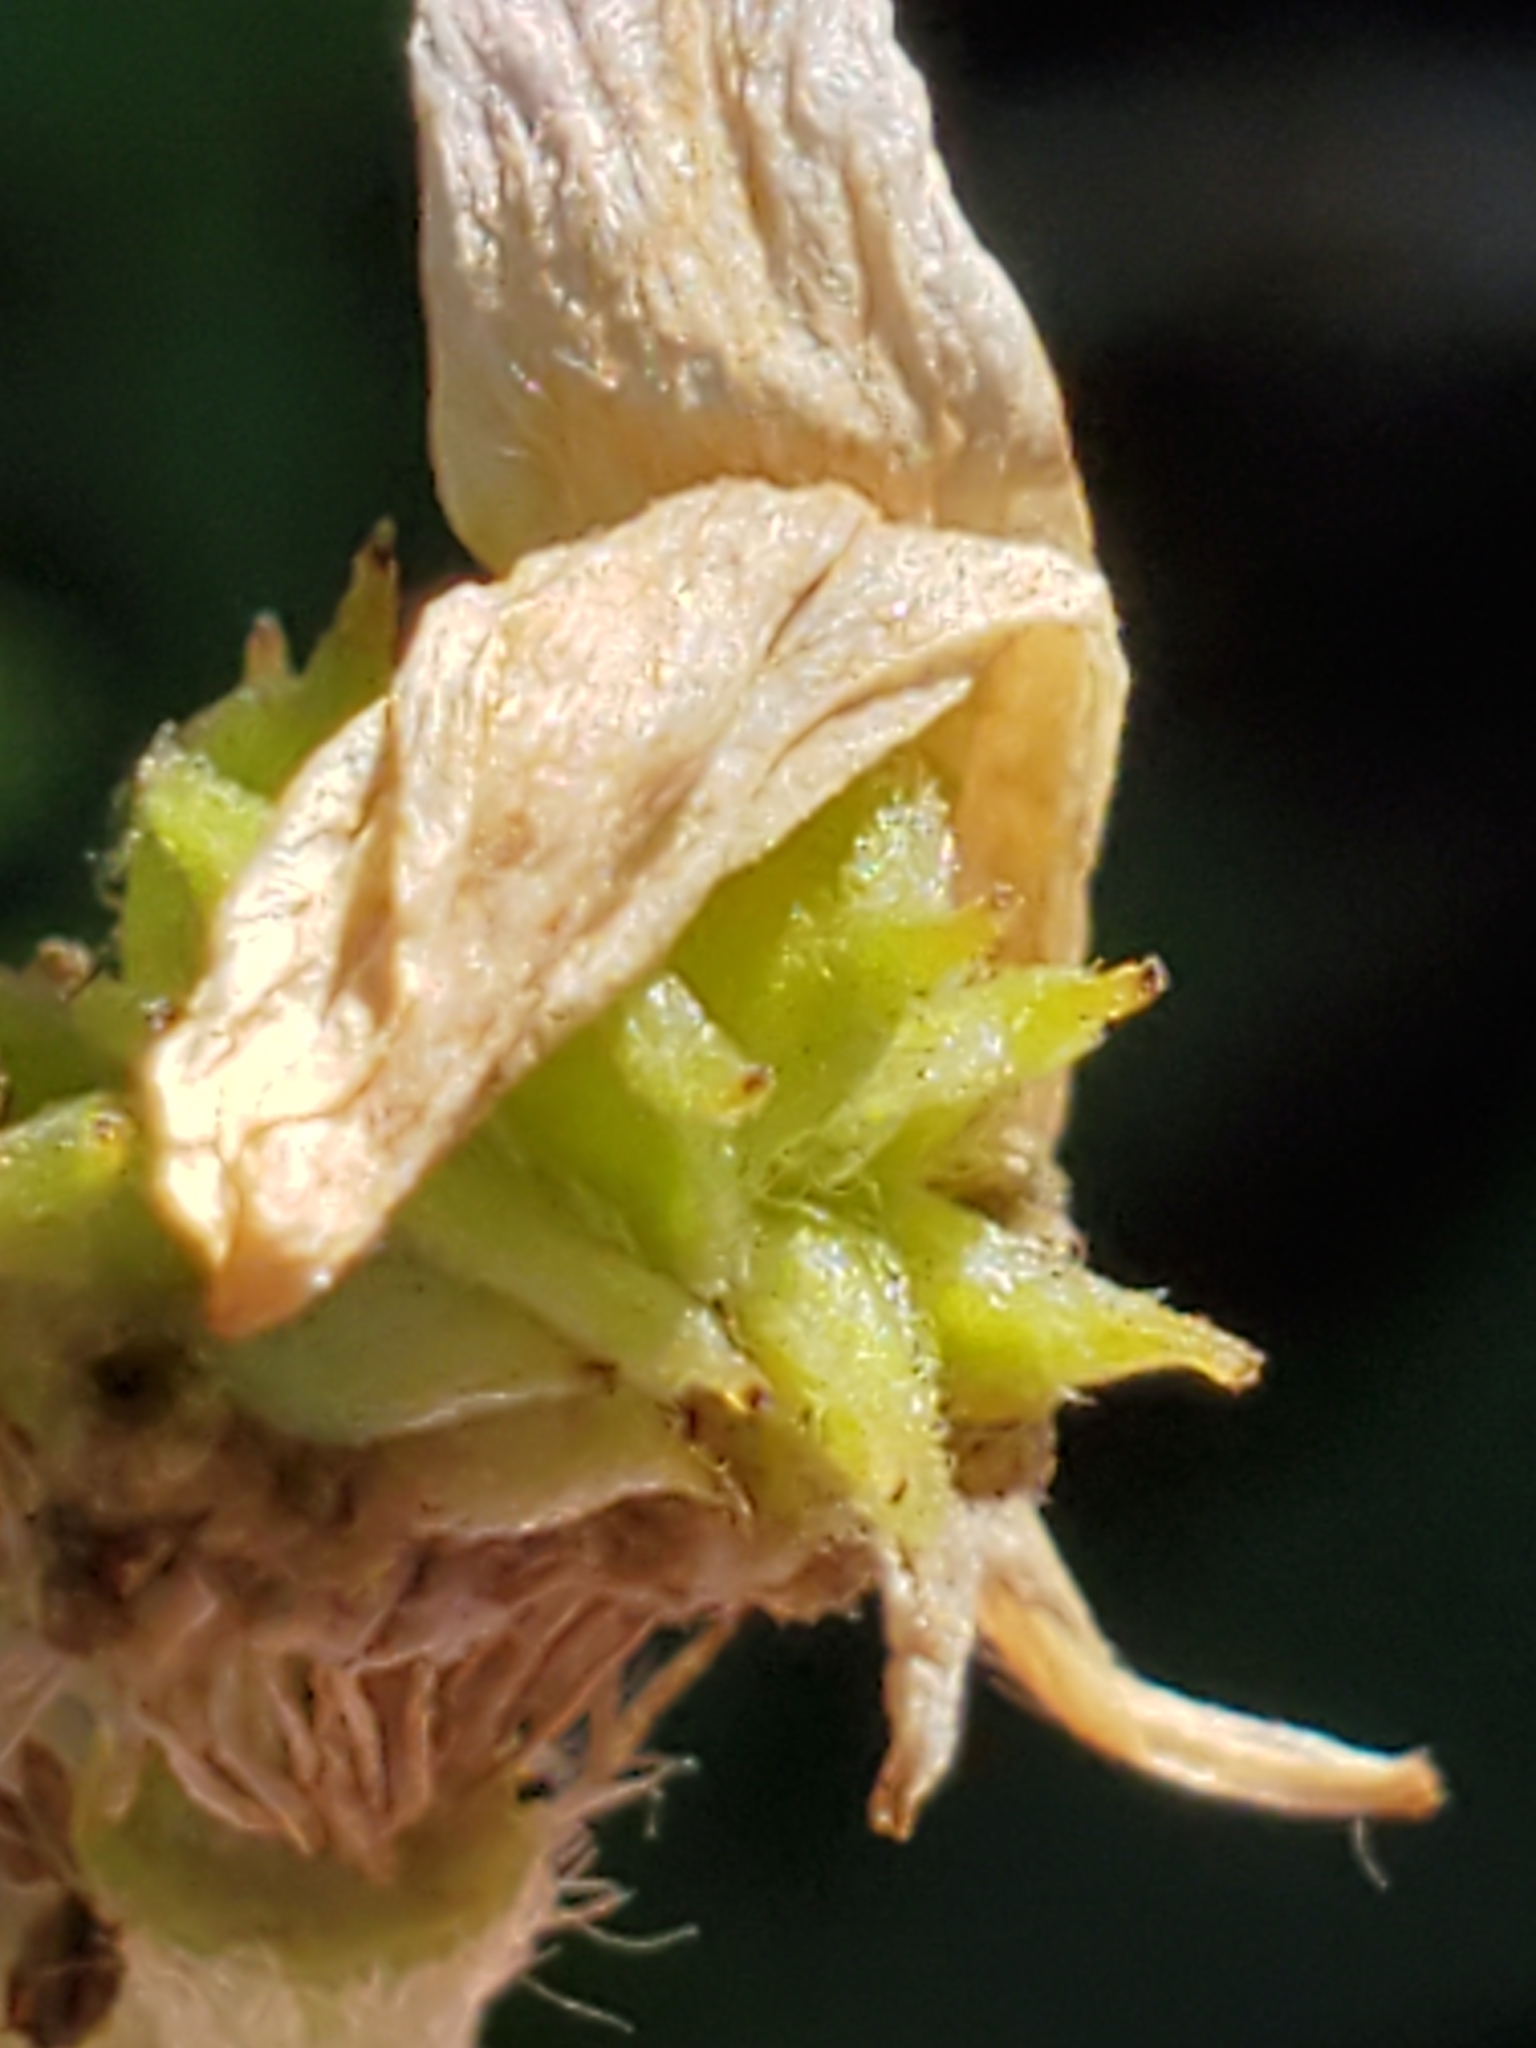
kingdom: Plantae
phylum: Tracheophyta
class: Magnoliopsida
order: Ranunculales
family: Ranunculaceae
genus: Anemone
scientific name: Anemone edwardsiana
